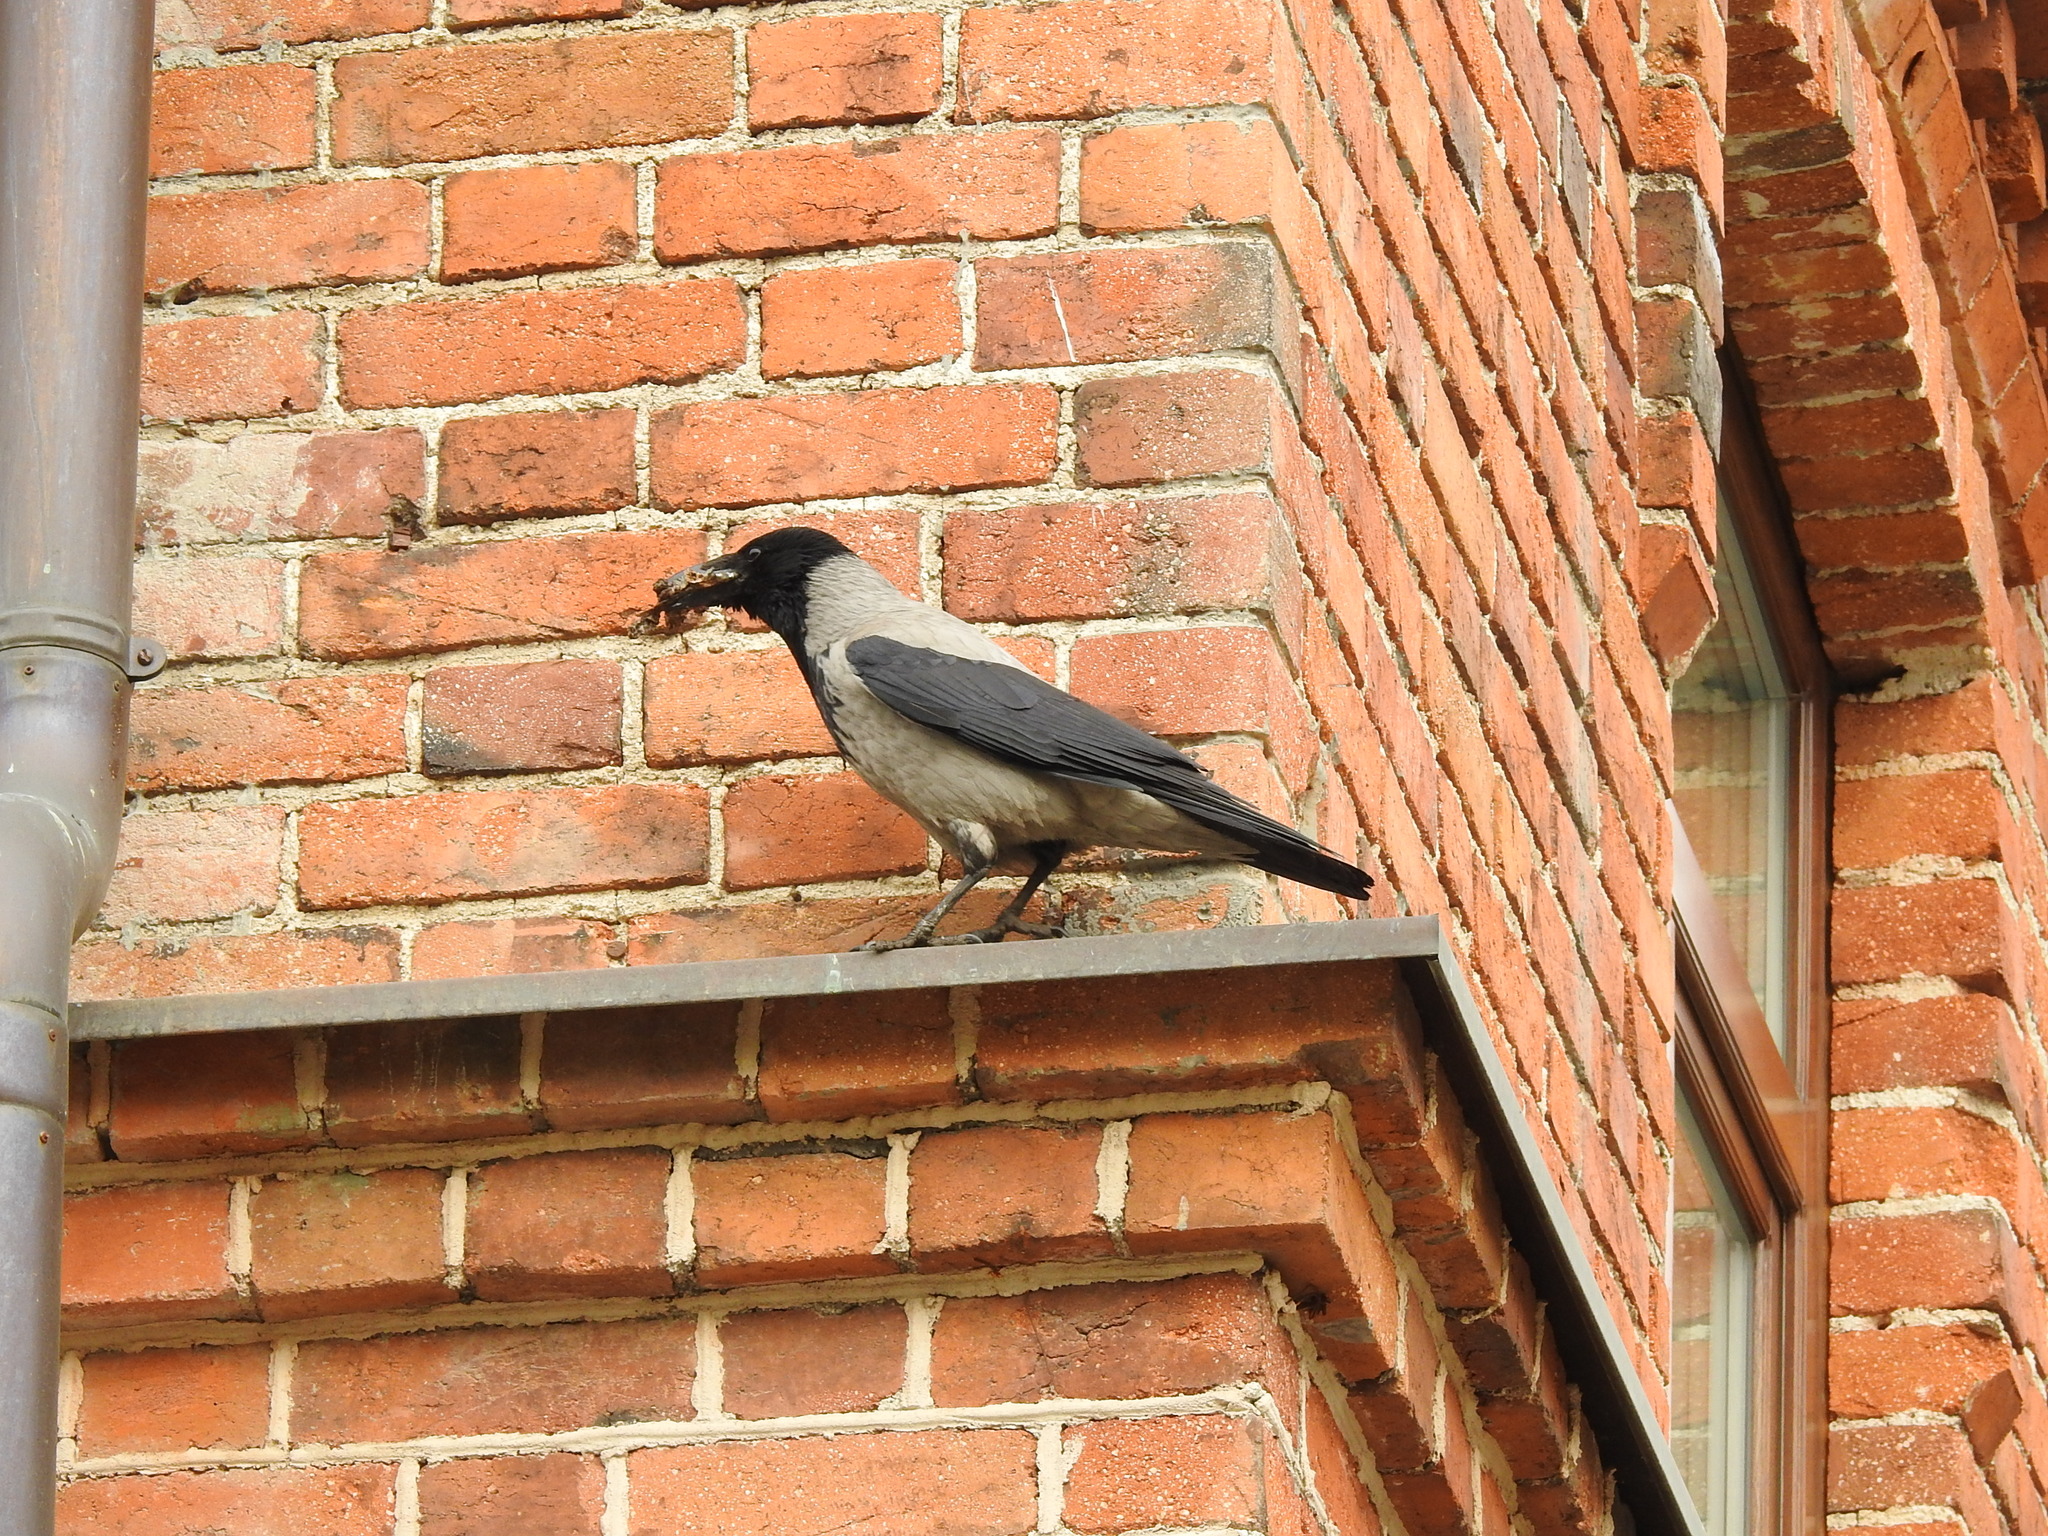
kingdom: Animalia
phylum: Chordata
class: Aves
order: Passeriformes
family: Corvidae
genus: Corvus
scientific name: Corvus cornix
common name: Hooded crow
